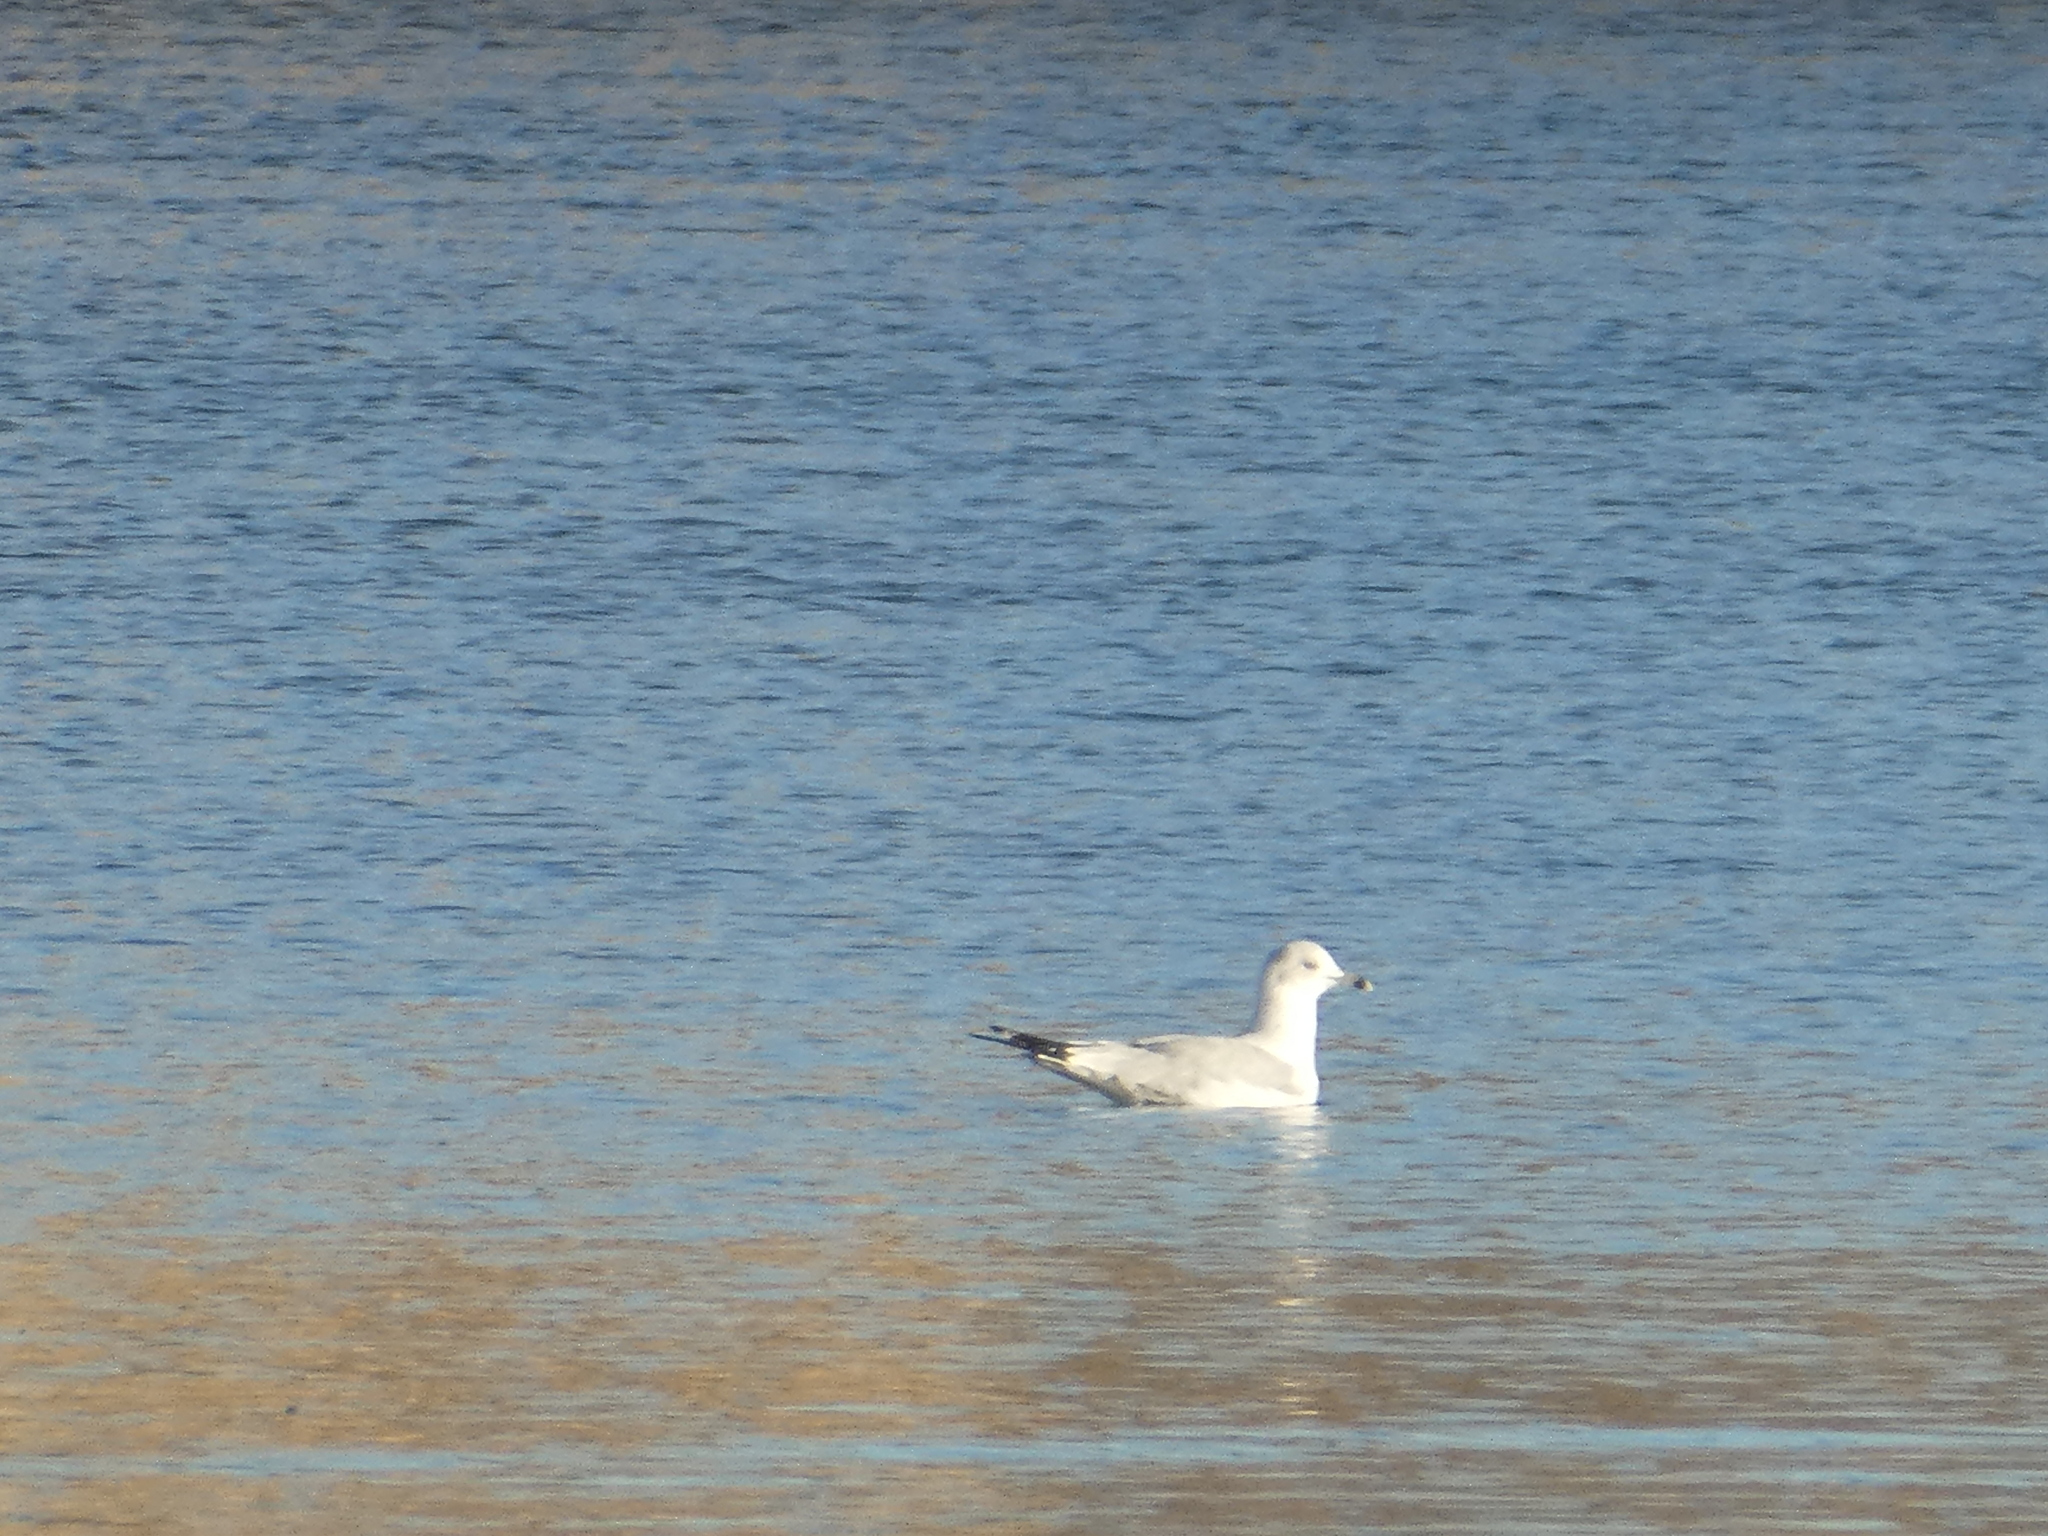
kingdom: Animalia
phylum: Chordata
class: Aves
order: Charadriiformes
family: Laridae
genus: Larus
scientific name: Larus delawarensis
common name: Ring-billed gull
